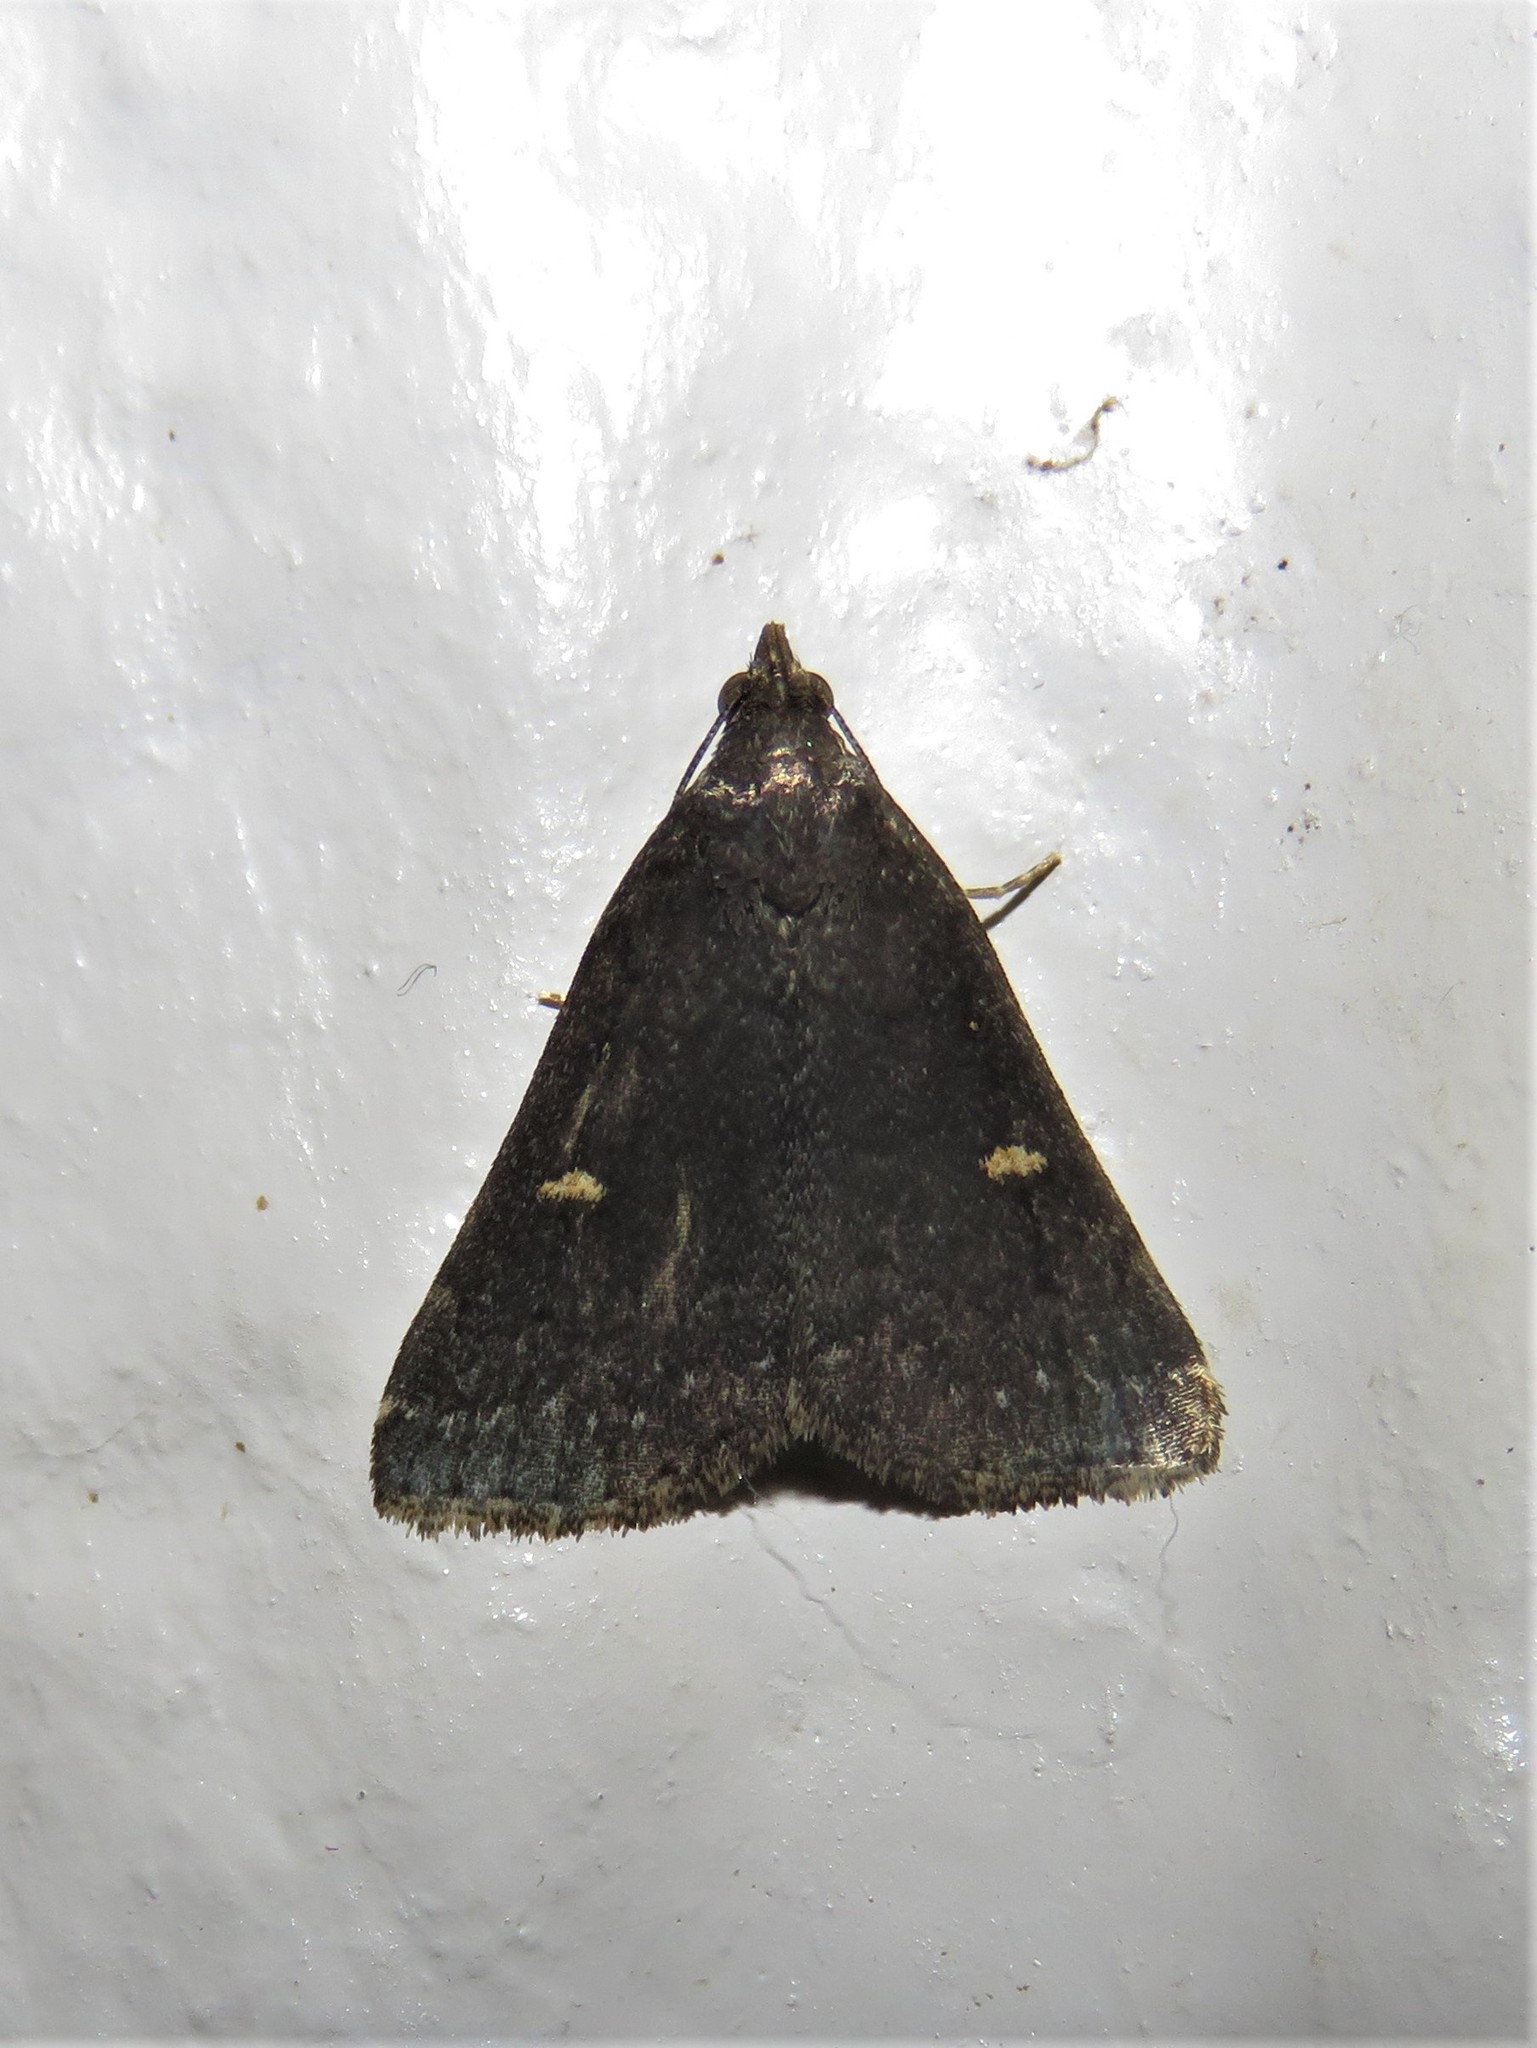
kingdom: Animalia
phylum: Arthropoda
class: Insecta
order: Lepidoptera
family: Erebidae
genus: Tetanolita
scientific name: Tetanolita mynesalis
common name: Smoky tetanolita moth
